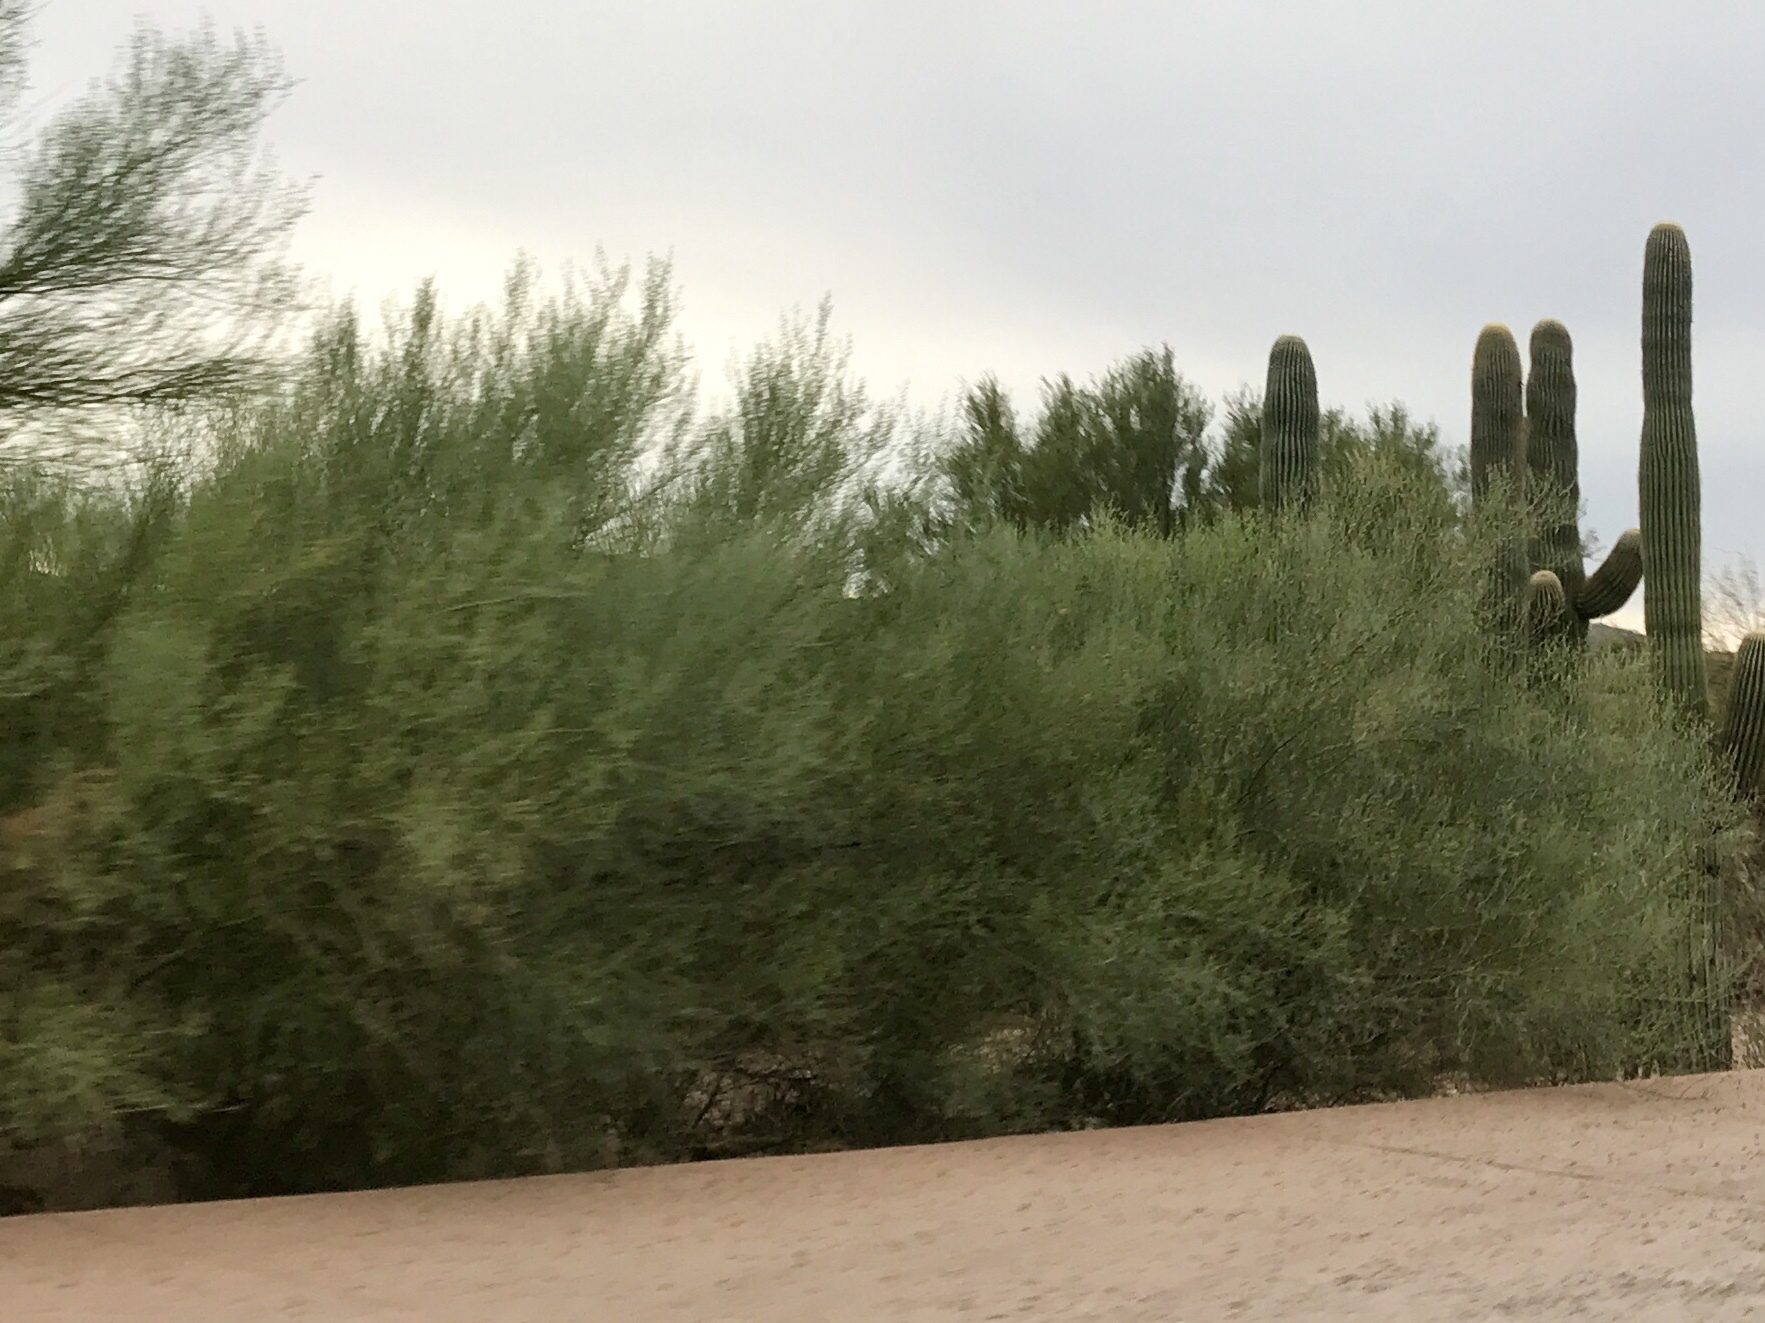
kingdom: Plantae
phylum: Tracheophyta
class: Magnoliopsida
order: Fabales
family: Fabaceae
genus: Parkinsonia
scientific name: Parkinsonia florida
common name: Blue paloverde
